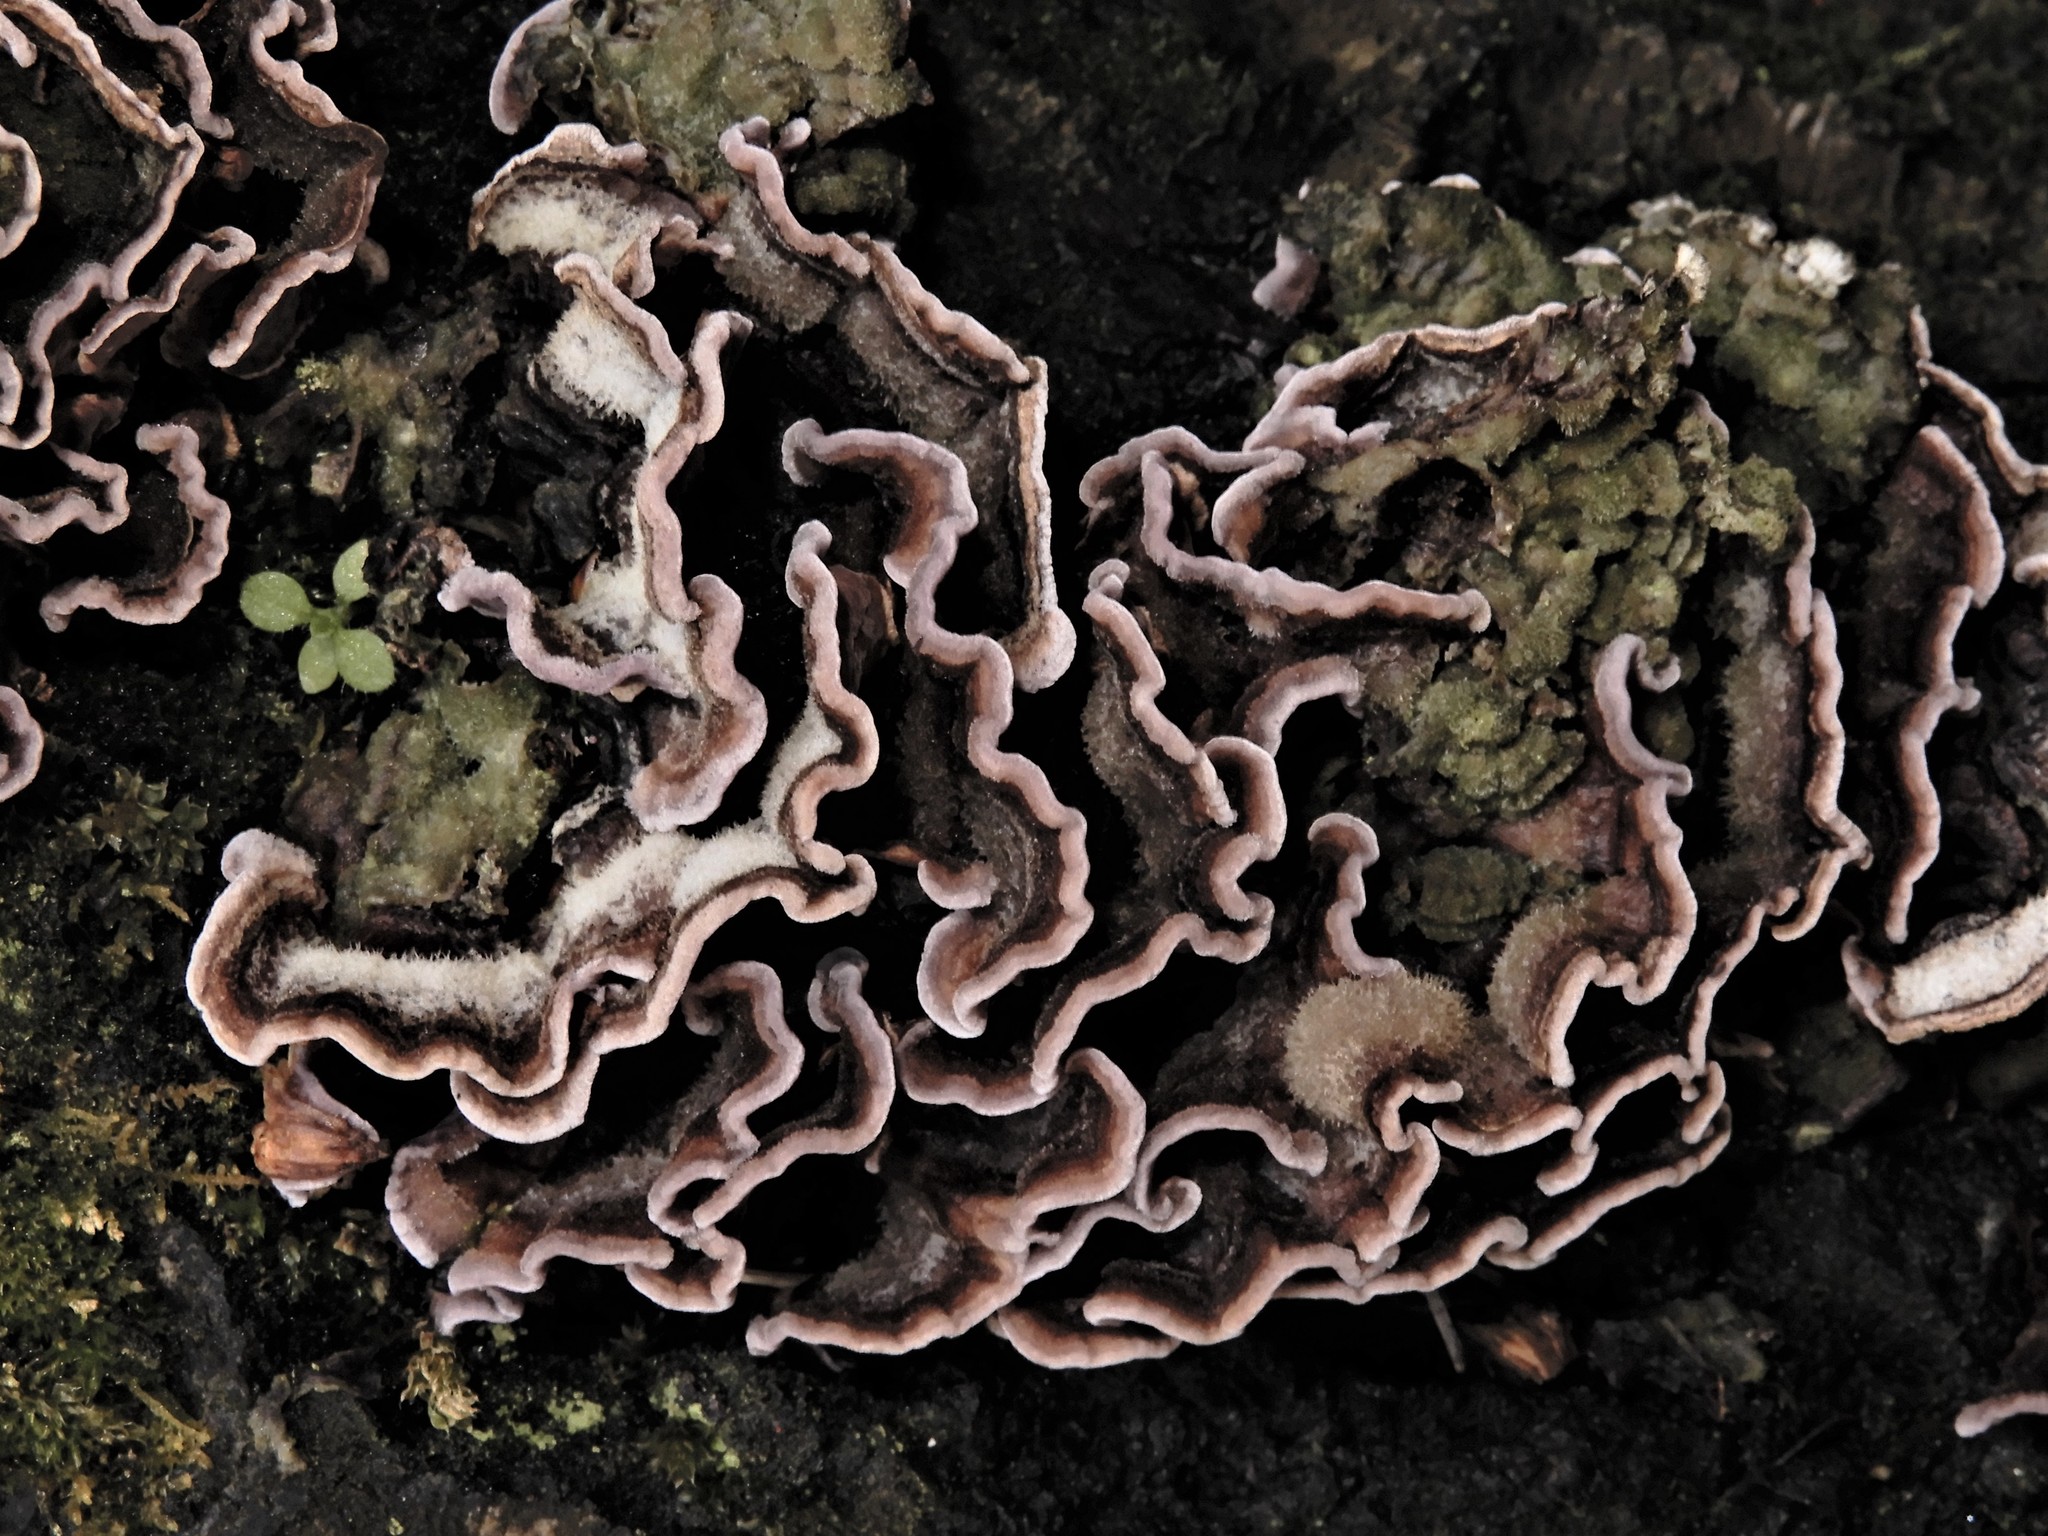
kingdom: Fungi
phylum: Basidiomycota
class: Agaricomycetes
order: Agaricales
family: Cyphellaceae
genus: Chondrostereum
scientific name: Chondrostereum purpureum
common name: Silver leaf disease
